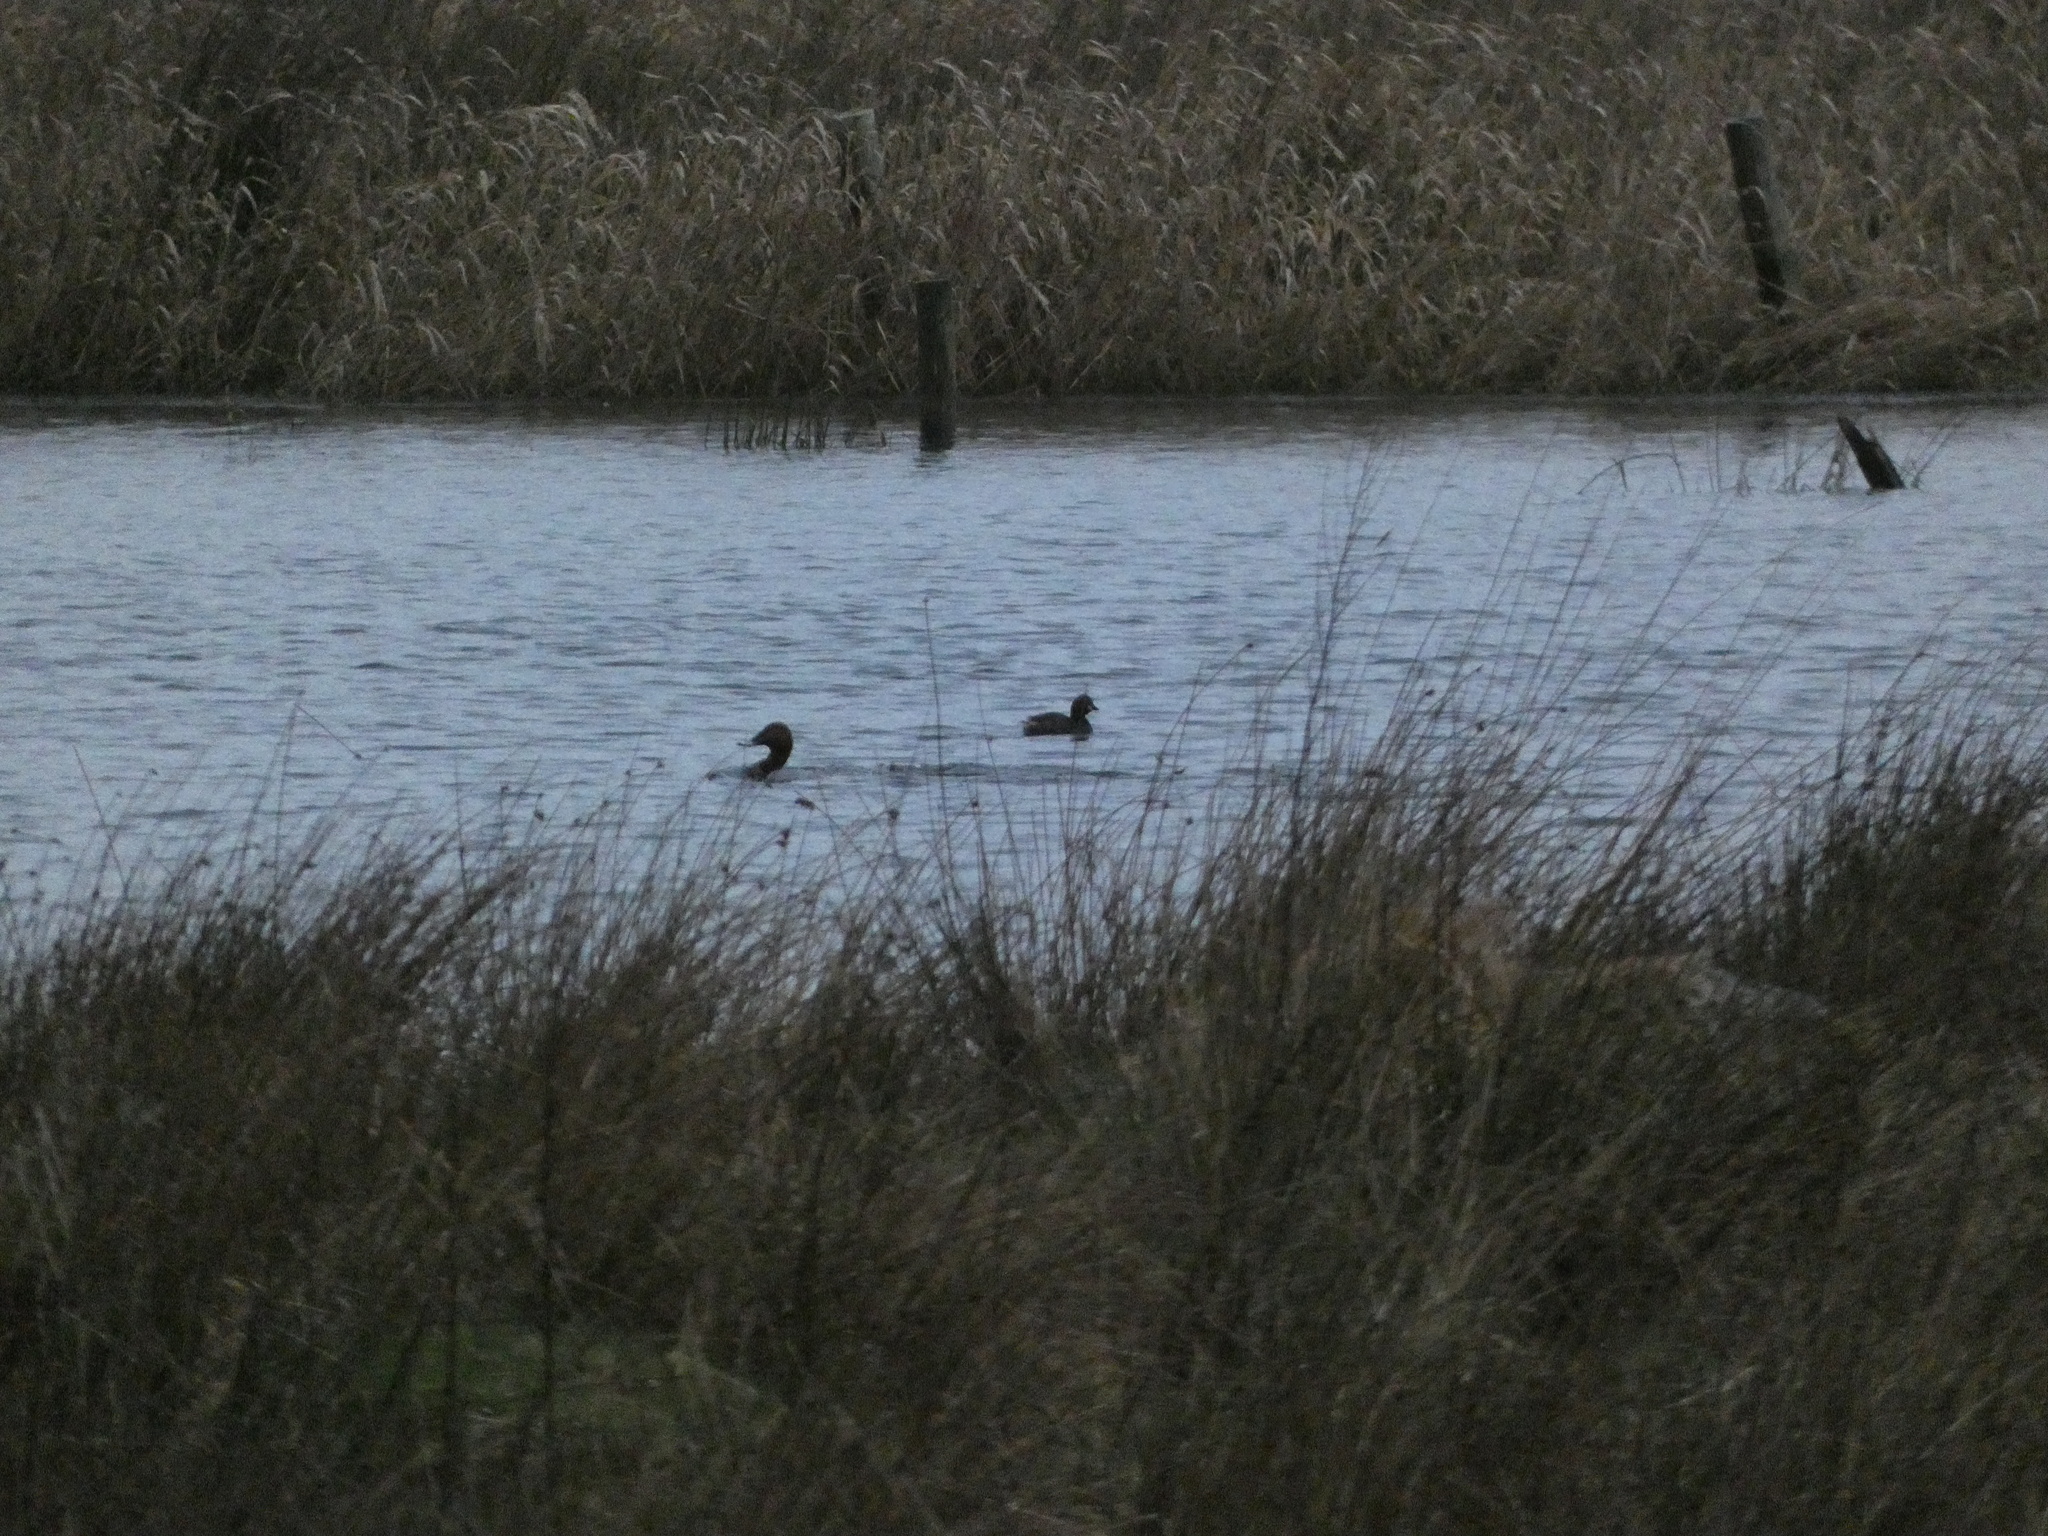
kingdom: Animalia
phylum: Chordata
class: Aves
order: Podicipediformes
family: Podicipedidae
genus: Tachybaptus
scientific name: Tachybaptus ruficollis
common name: Little grebe
